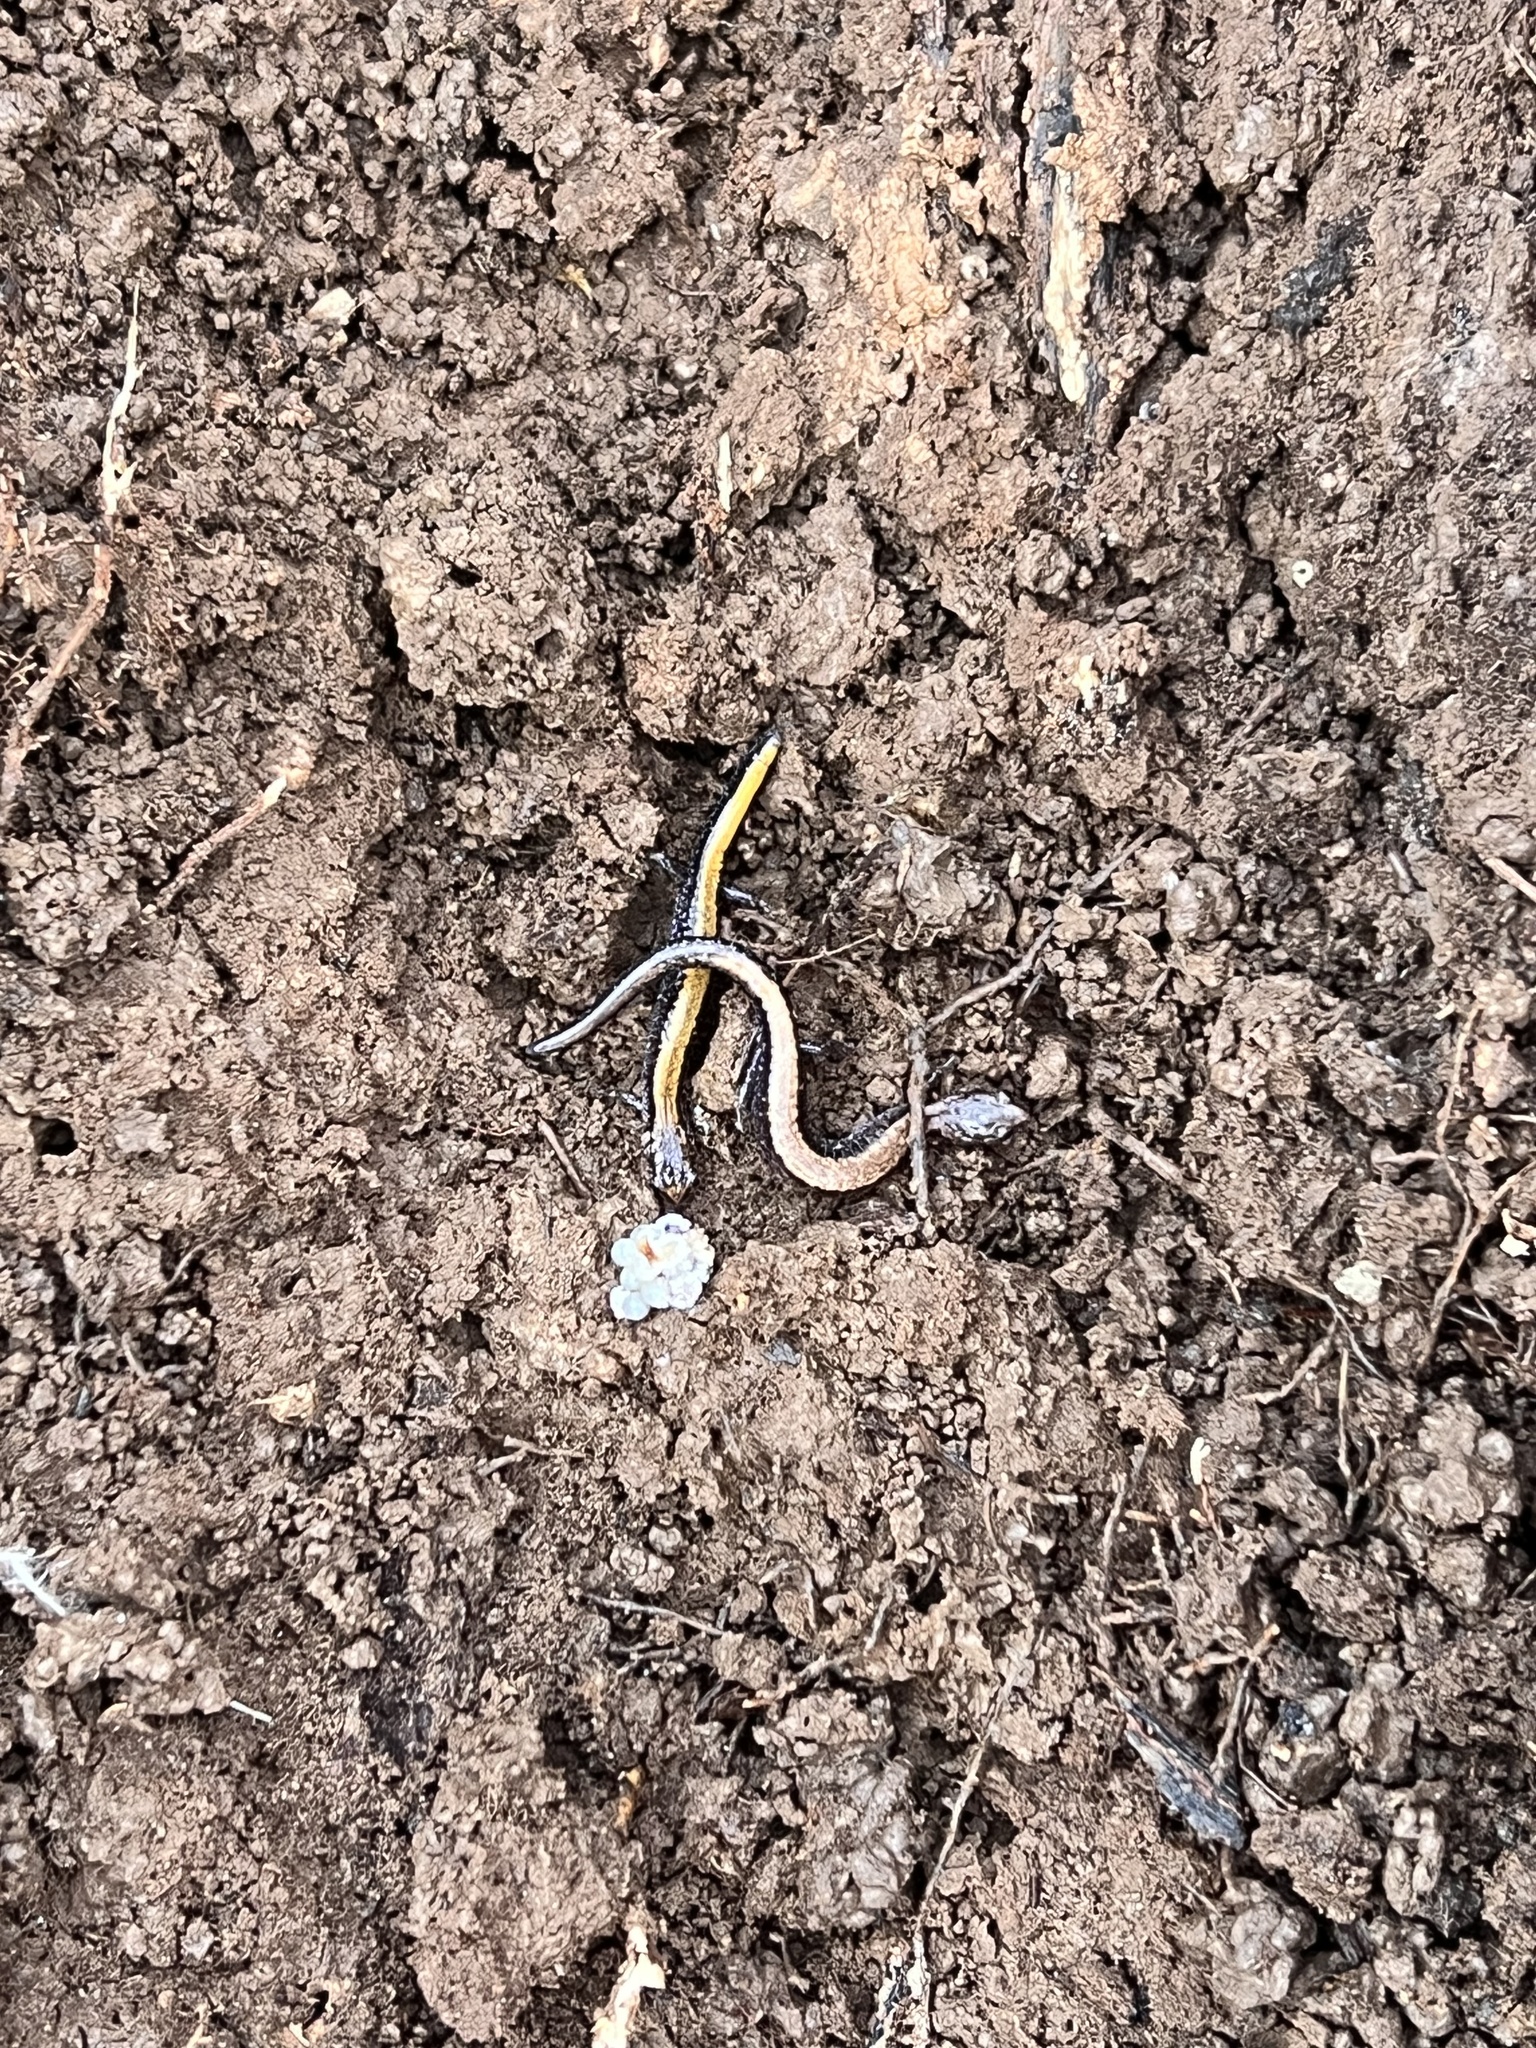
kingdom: Animalia
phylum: Chordata
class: Amphibia
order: Caudata
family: Plethodontidae
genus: Plethodon
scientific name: Plethodon cinereus
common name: Redback salamander
